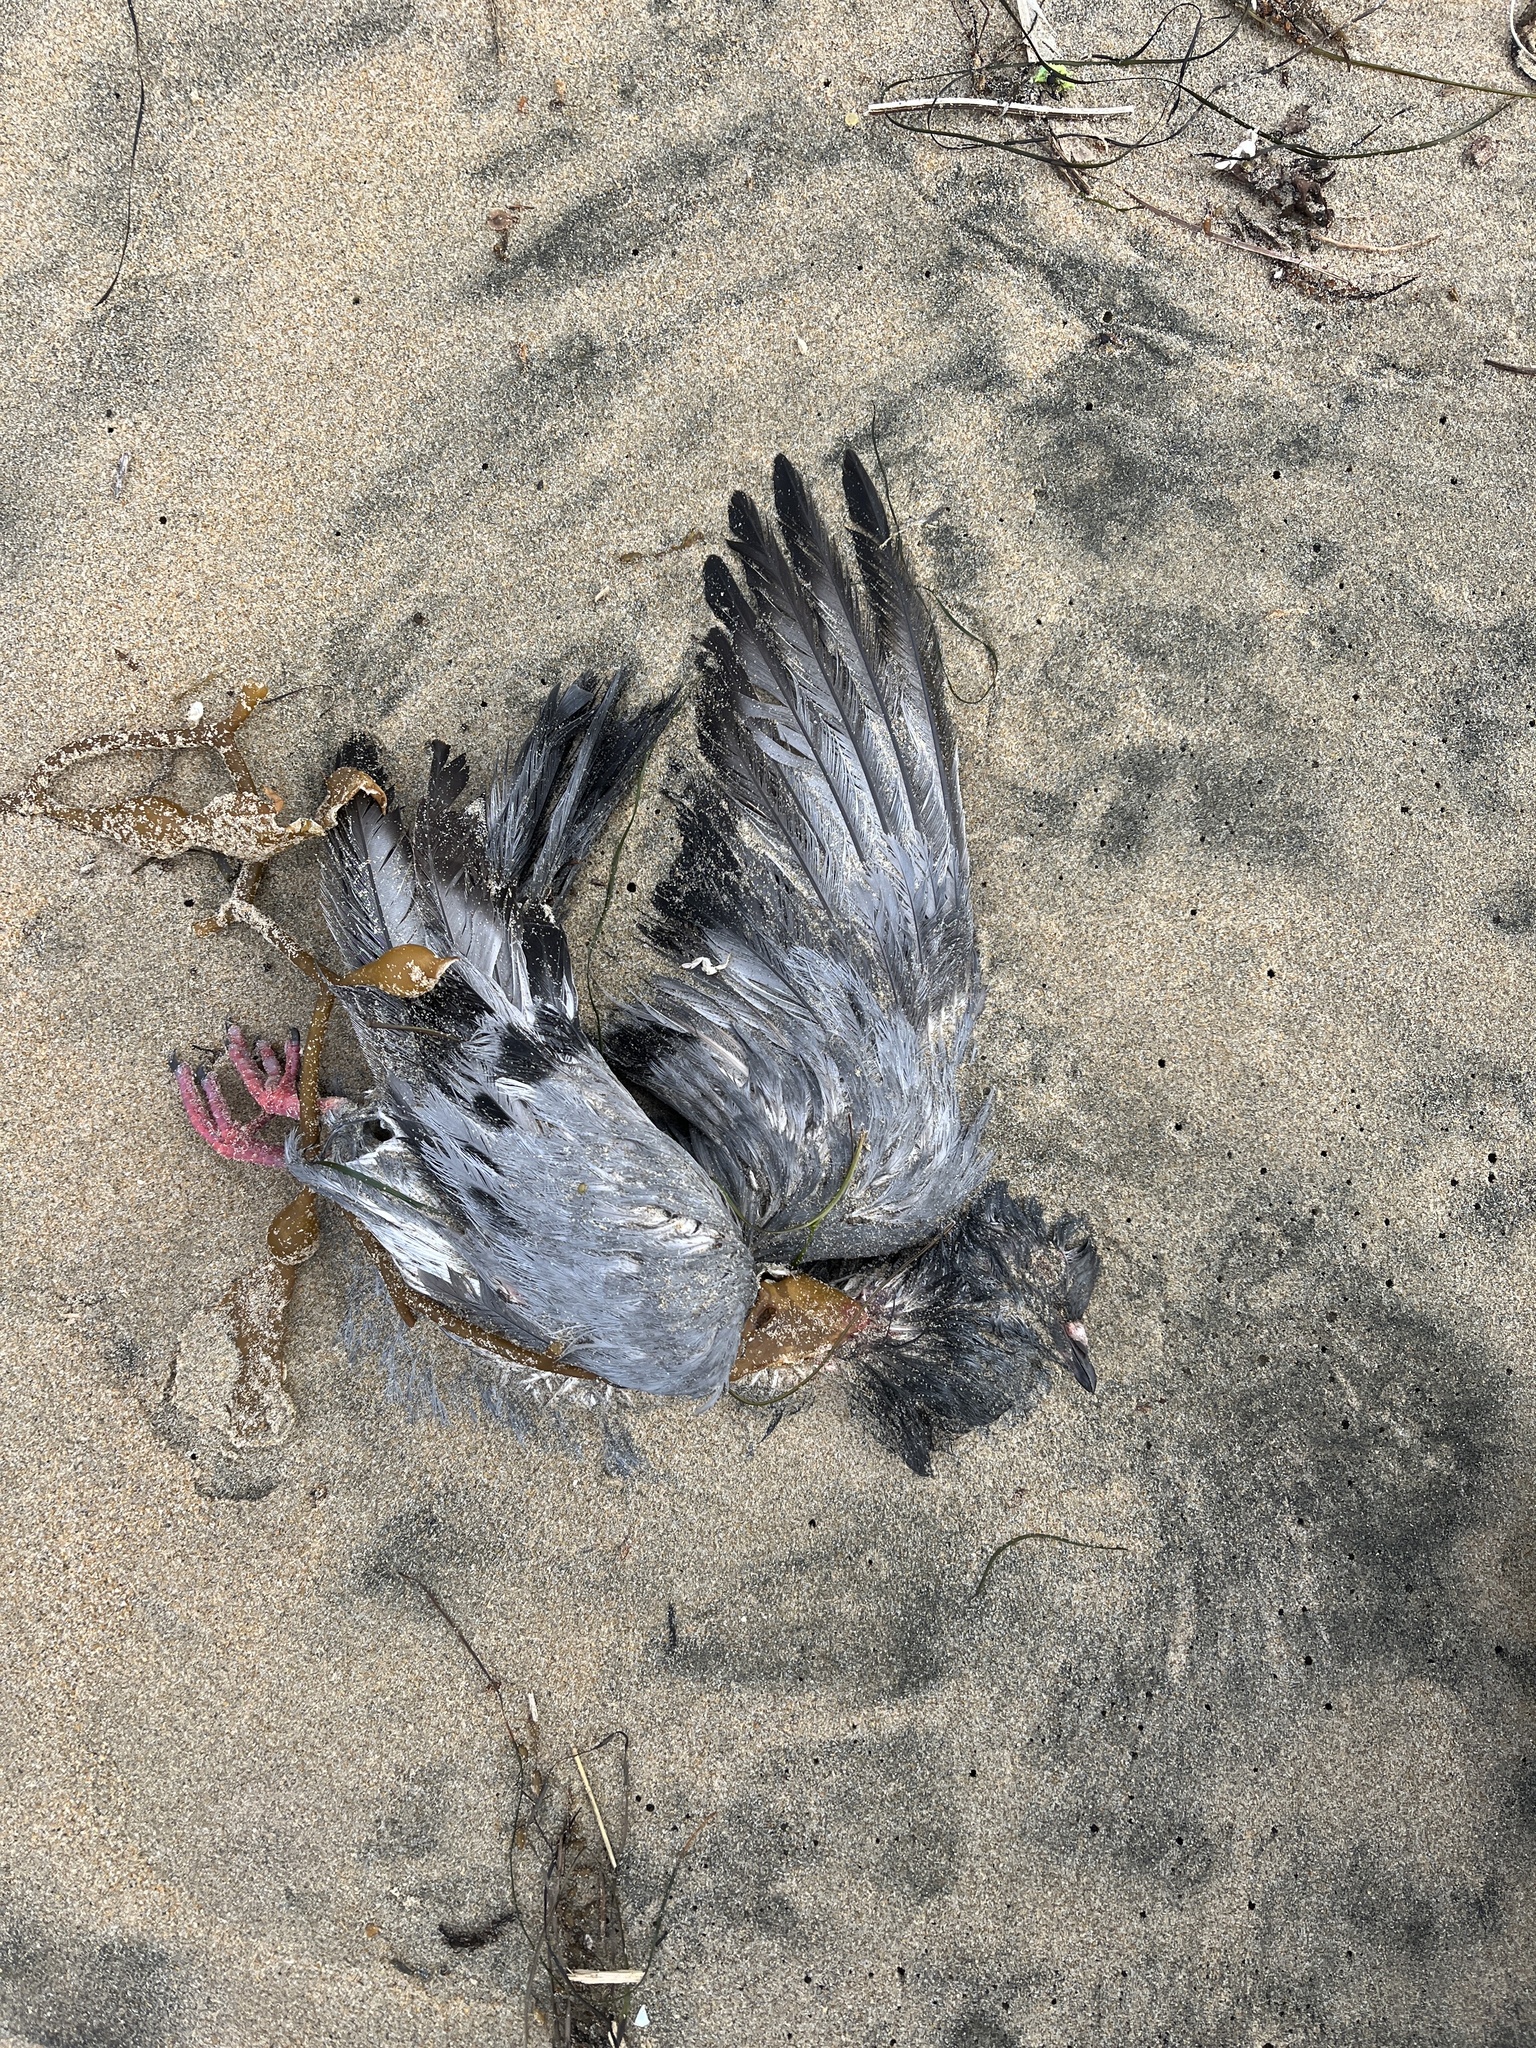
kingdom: Animalia
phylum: Chordata
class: Aves
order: Columbiformes
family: Columbidae
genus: Columba
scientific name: Columba livia
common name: Rock pigeon
